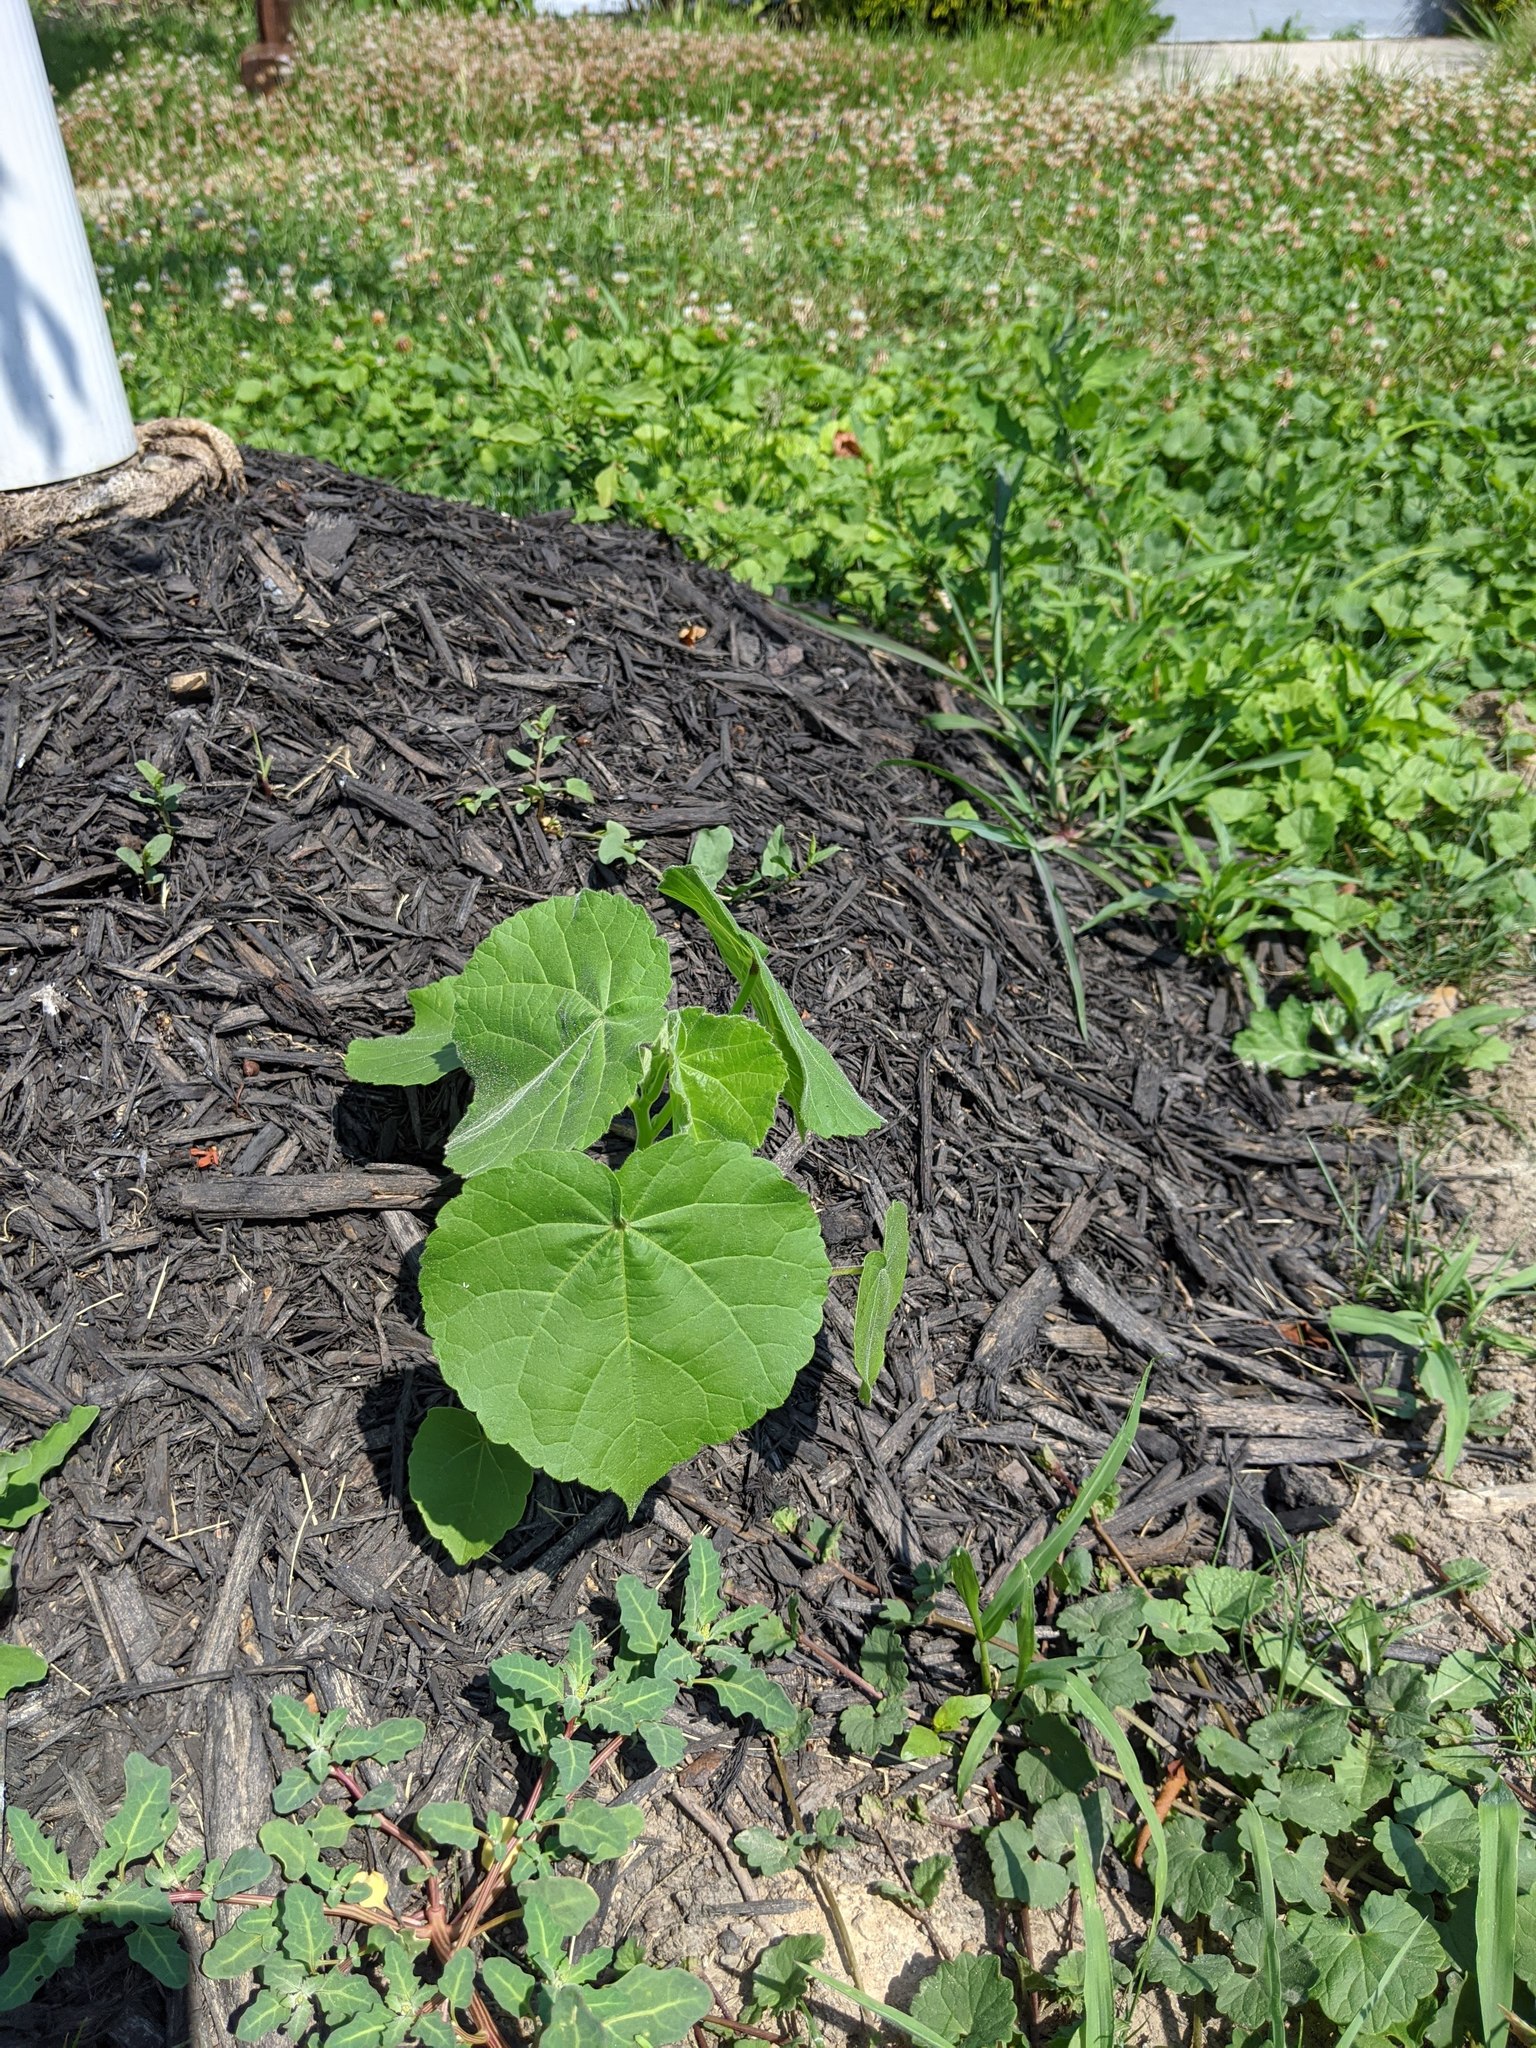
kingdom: Plantae
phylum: Tracheophyta
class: Magnoliopsida
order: Malvales
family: Malvaceae
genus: Abutilon
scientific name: Abutilon theophrasti
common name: Velvetleaf
